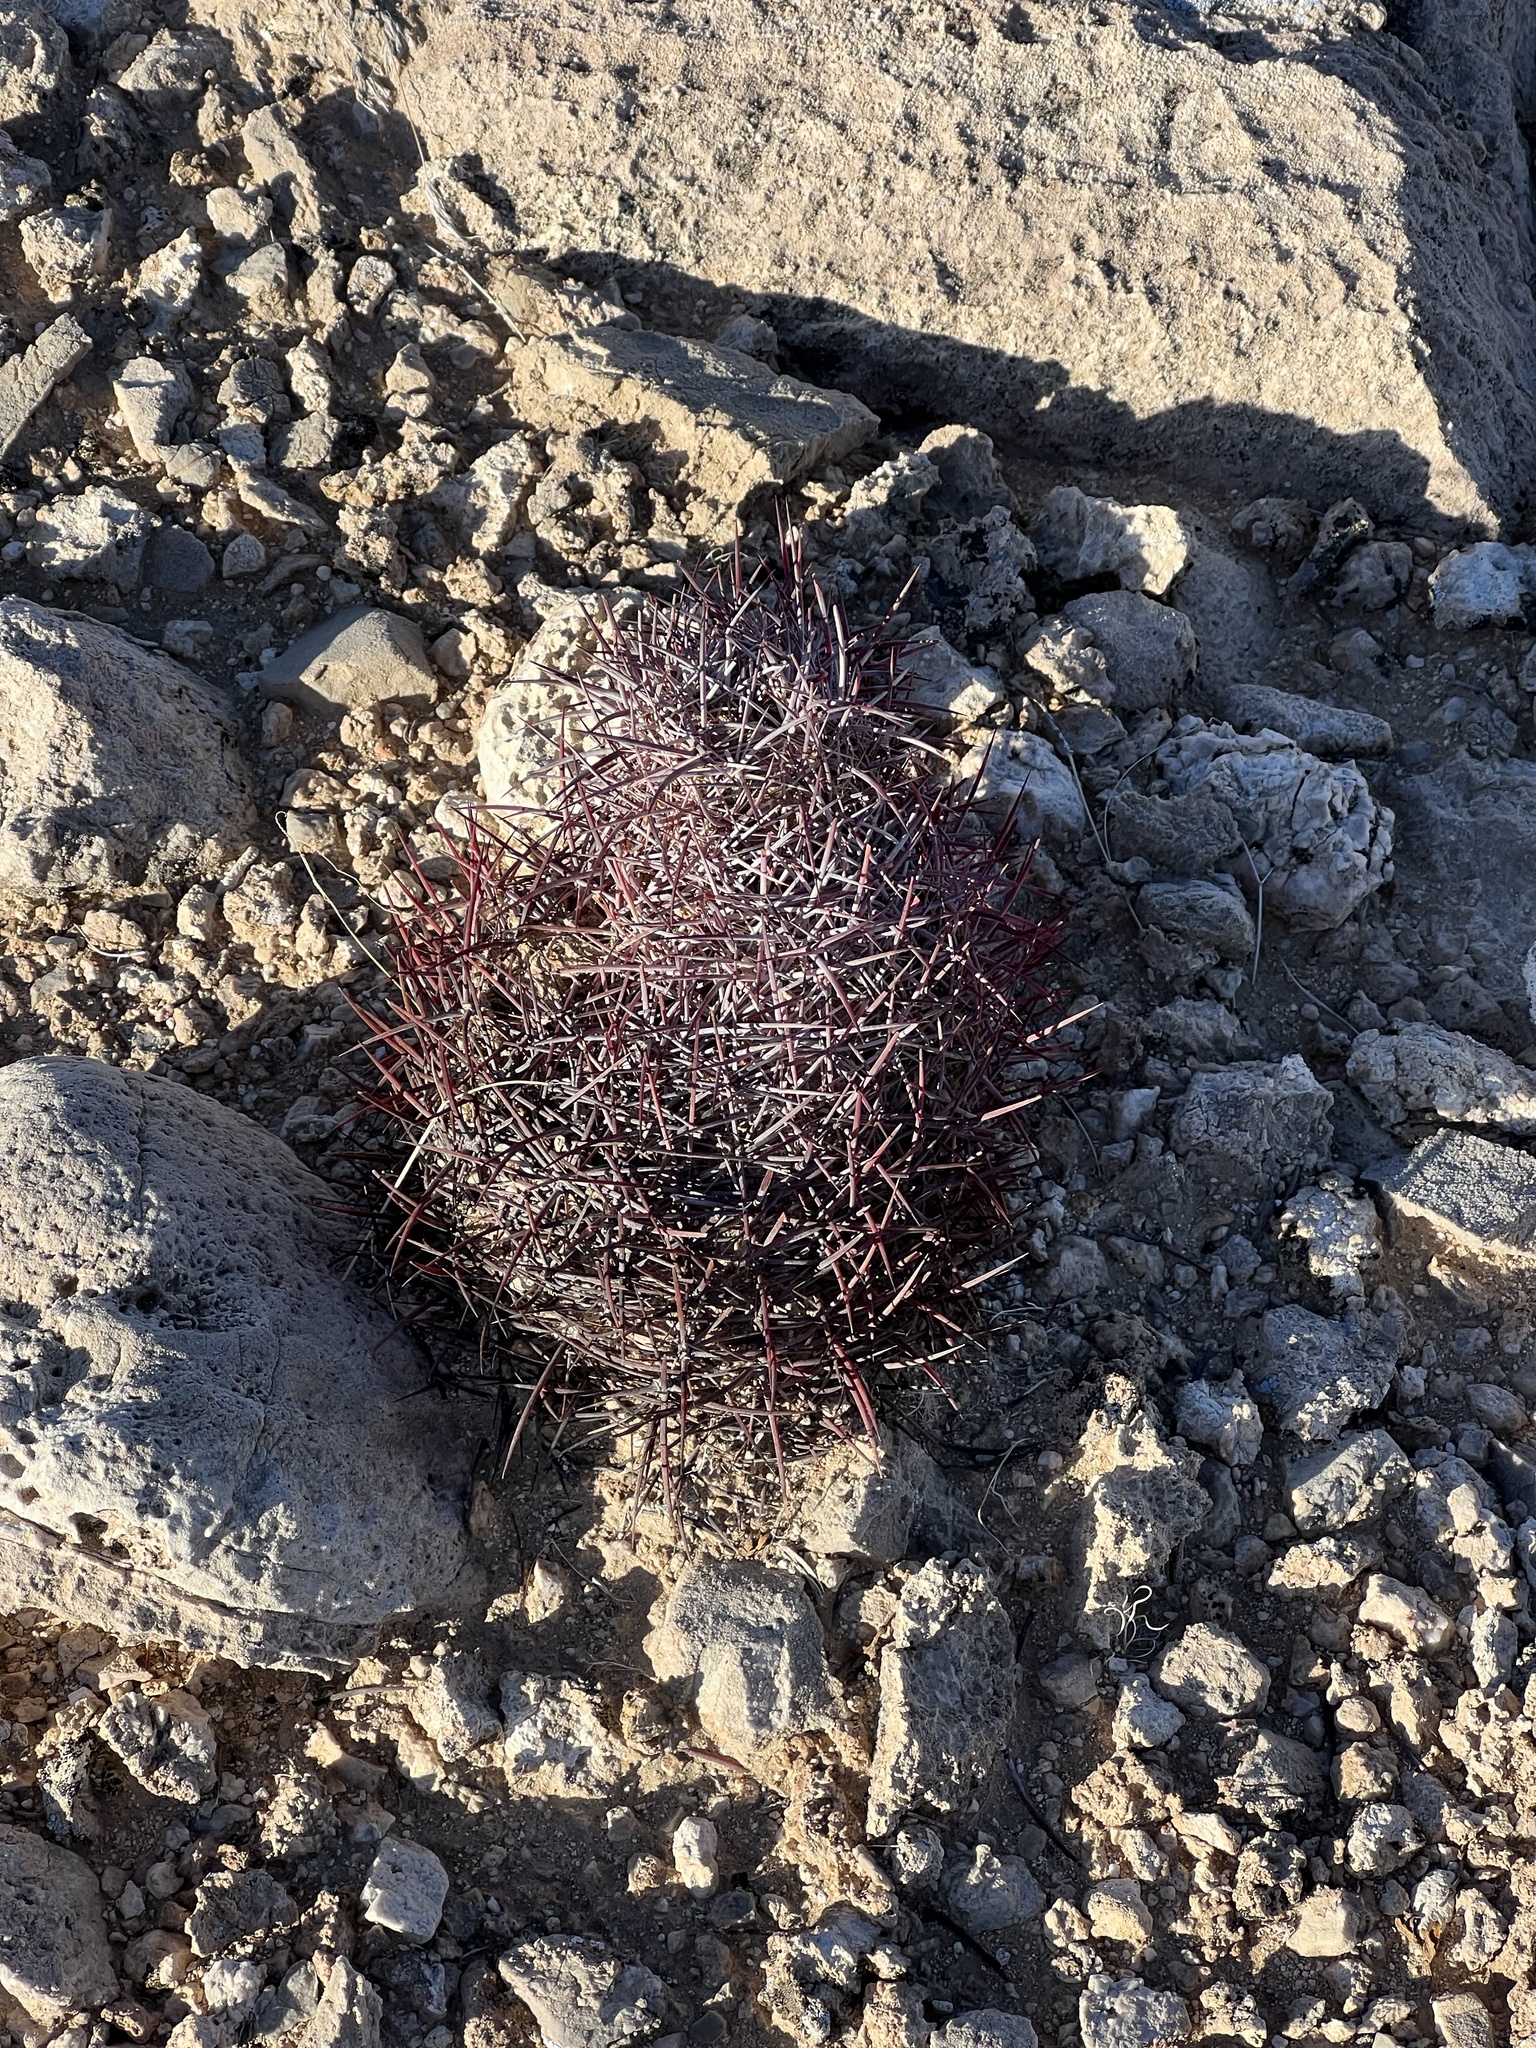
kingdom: Plantae
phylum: Tracheophyta
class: Magnoliopsida
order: Caryophyllales
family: Cactaceae
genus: Sclerocactus
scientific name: Sclerocactus johnsonii
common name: Eight-spine fishhook cactus
